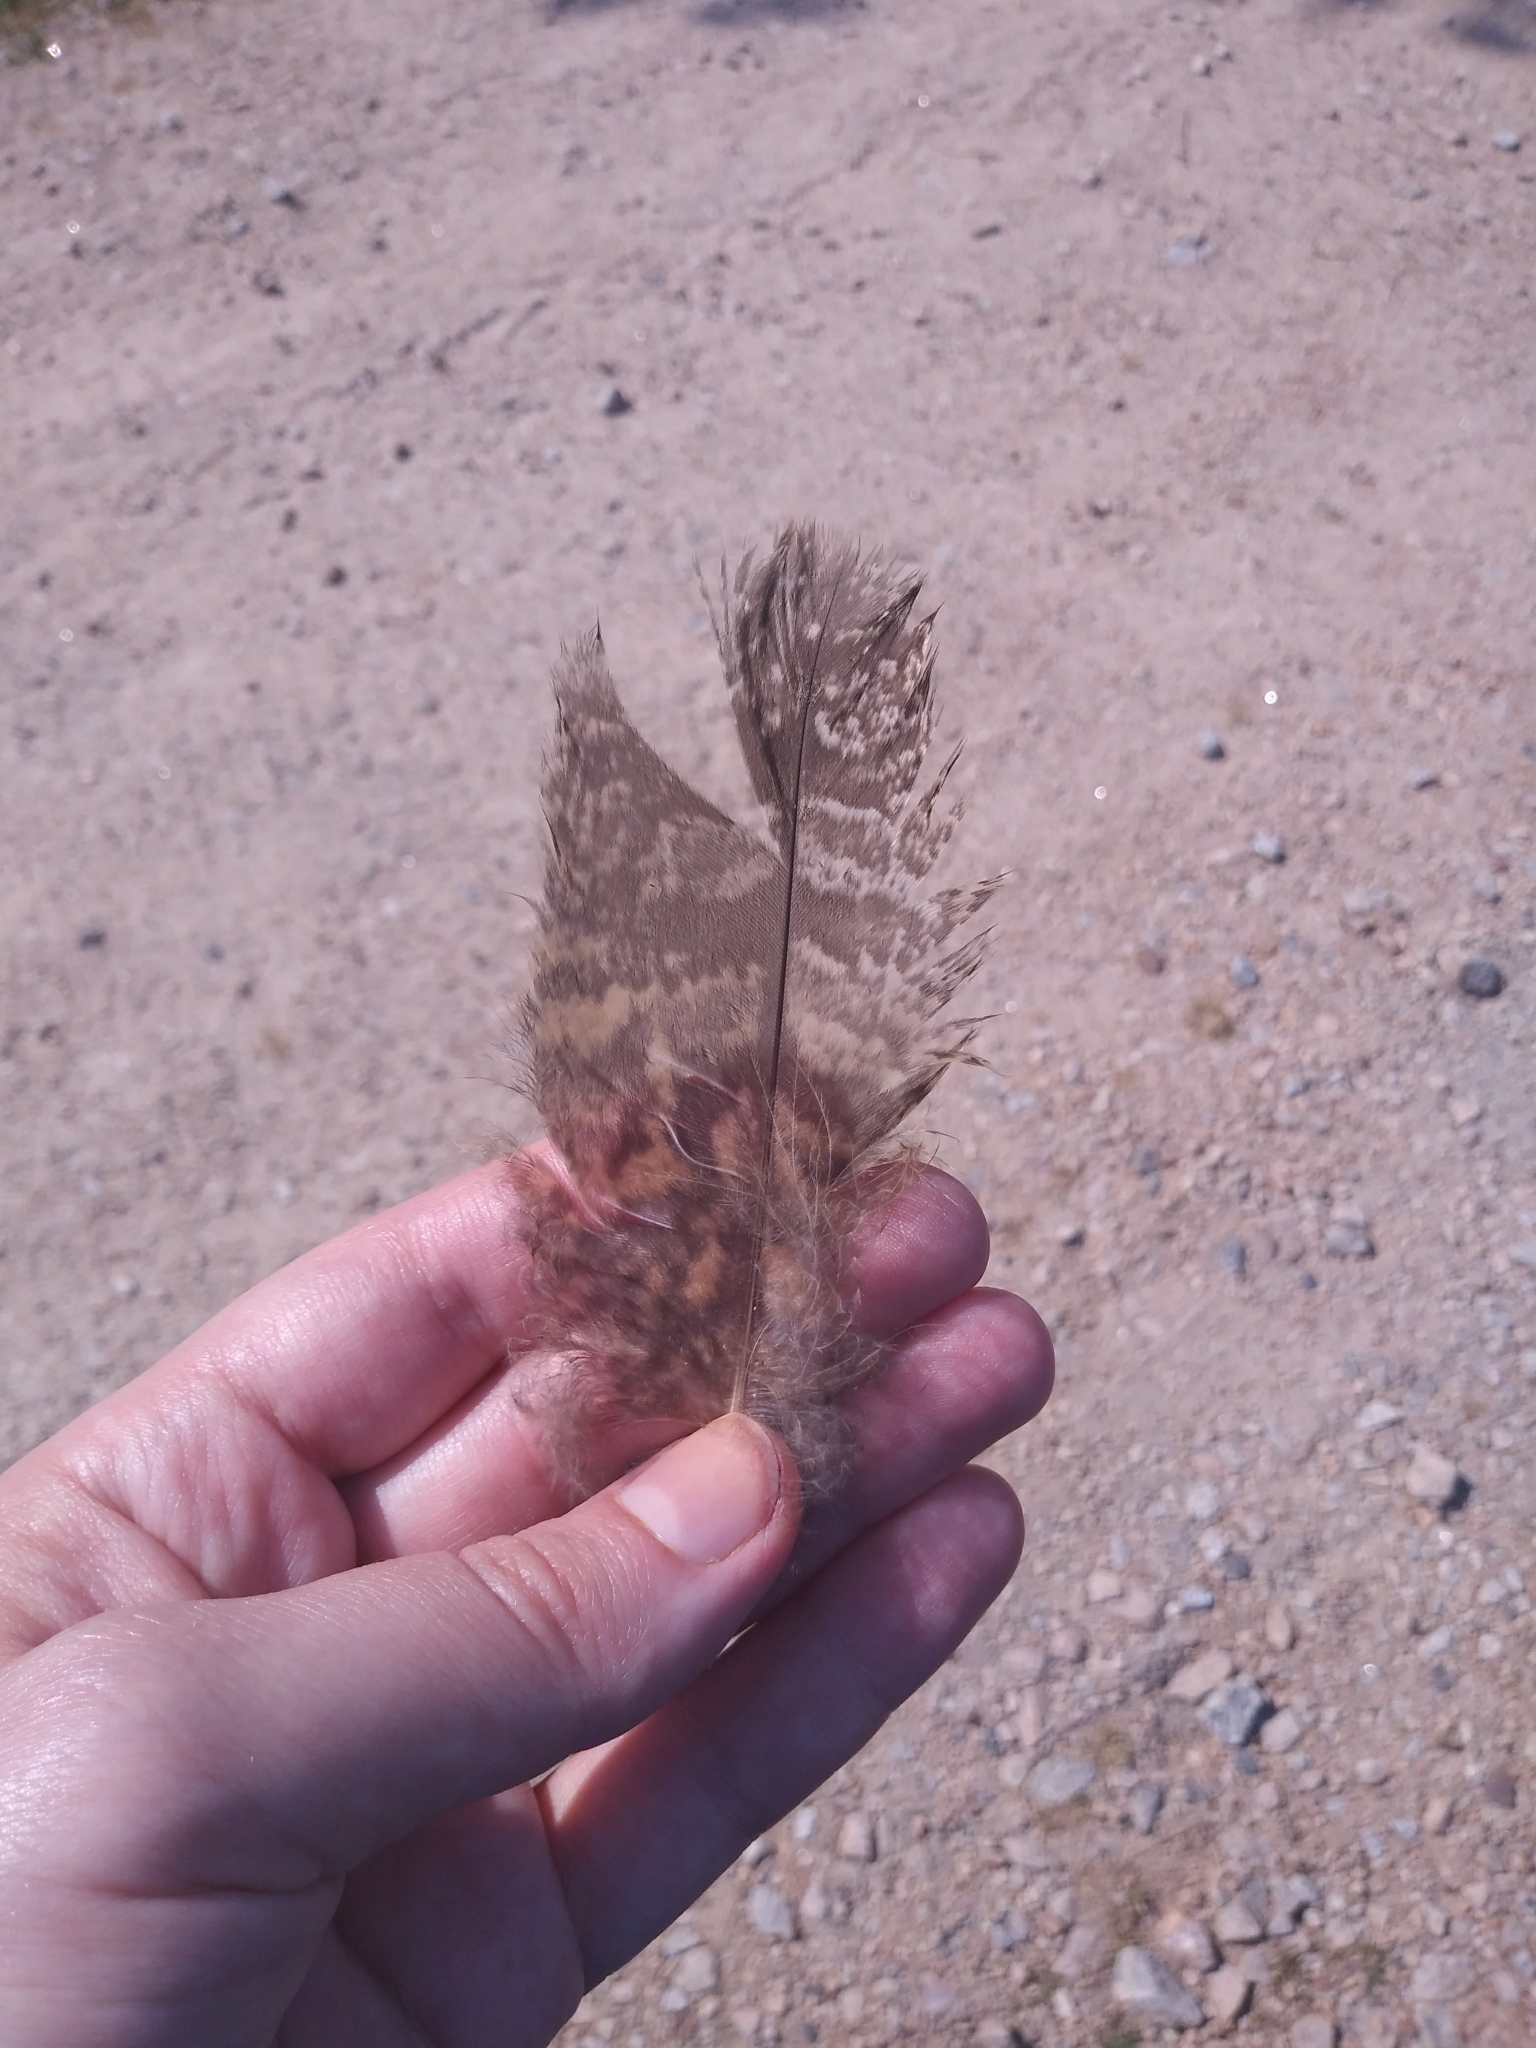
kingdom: Animalia
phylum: Chordata
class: Aves
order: Strigiformes
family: Strigidae
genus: Bubo
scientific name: Bubo virginianus
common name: Great horned owl
